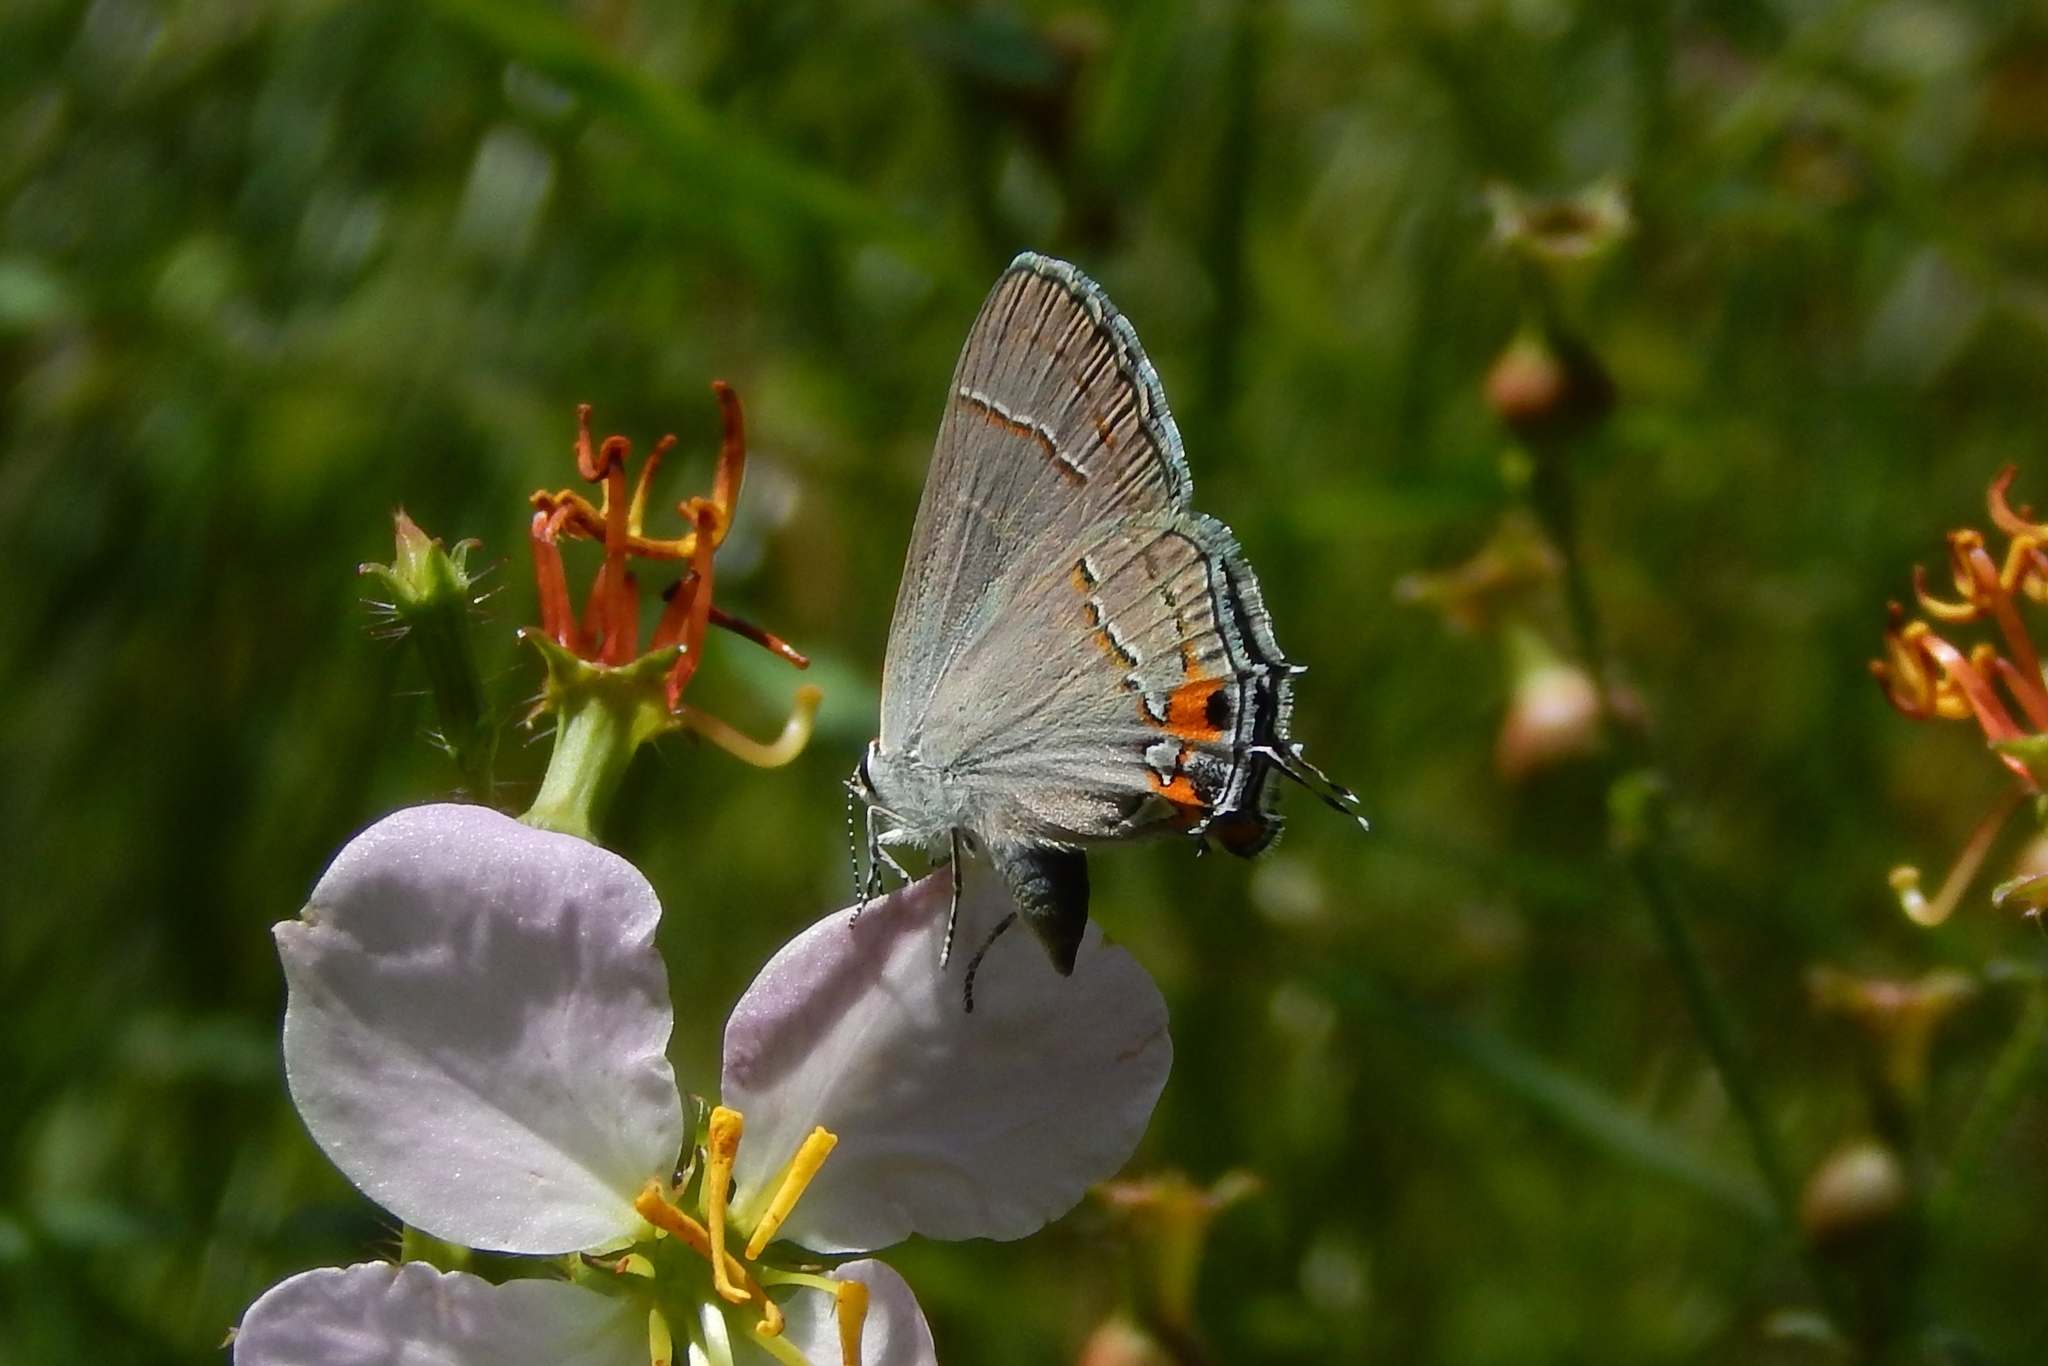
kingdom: Animalia
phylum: Arthropoda
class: Insecta
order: Lepidoptera
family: Lycaenidae
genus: Strymon
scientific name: Strymon melinus
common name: Gray hairstreak
